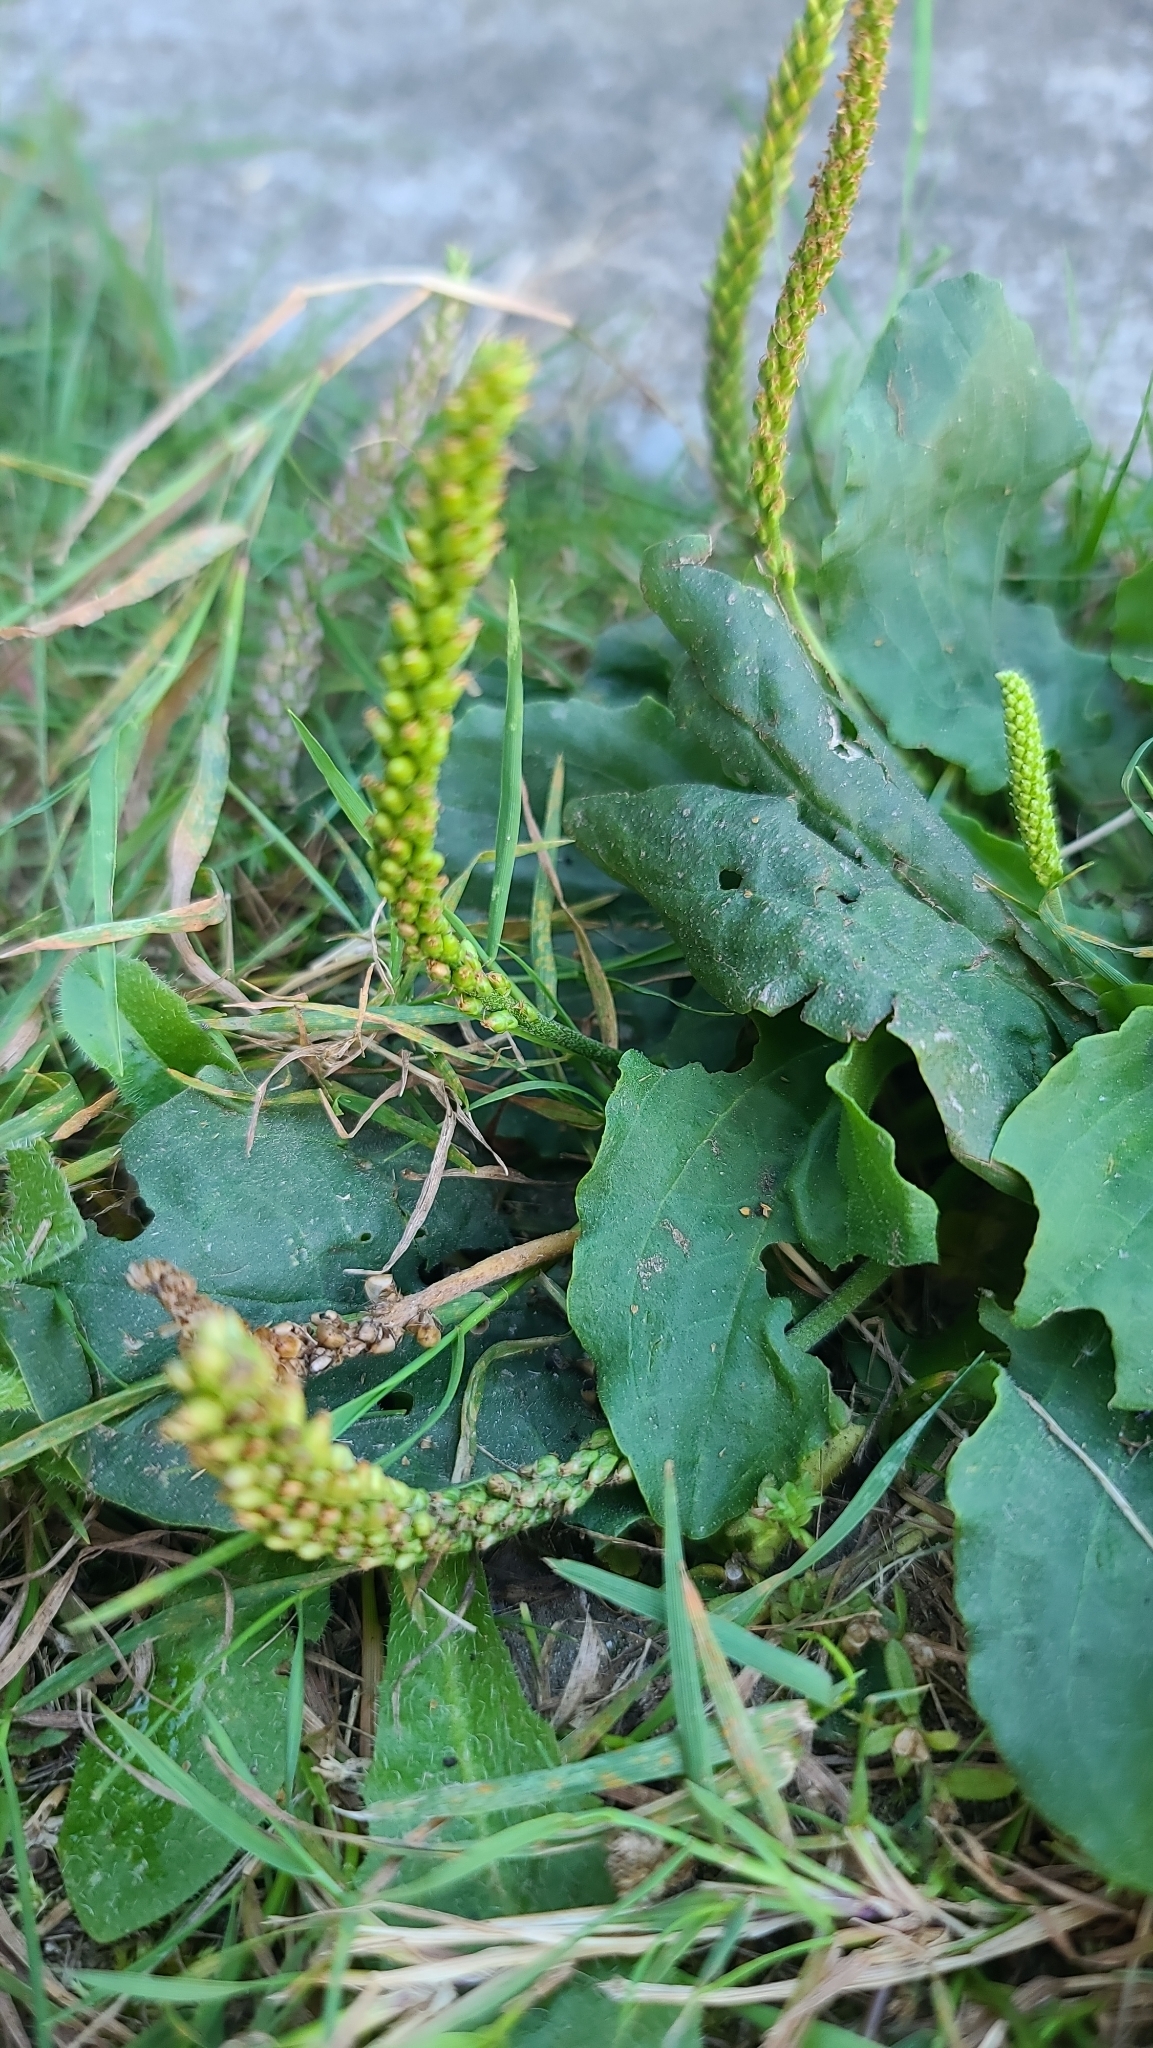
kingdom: Plantae
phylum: Tracheophyta
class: Magnoliopsida
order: Lamiales
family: Plantaginaceae
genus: Plantago
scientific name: Plantago major
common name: Common plantain
